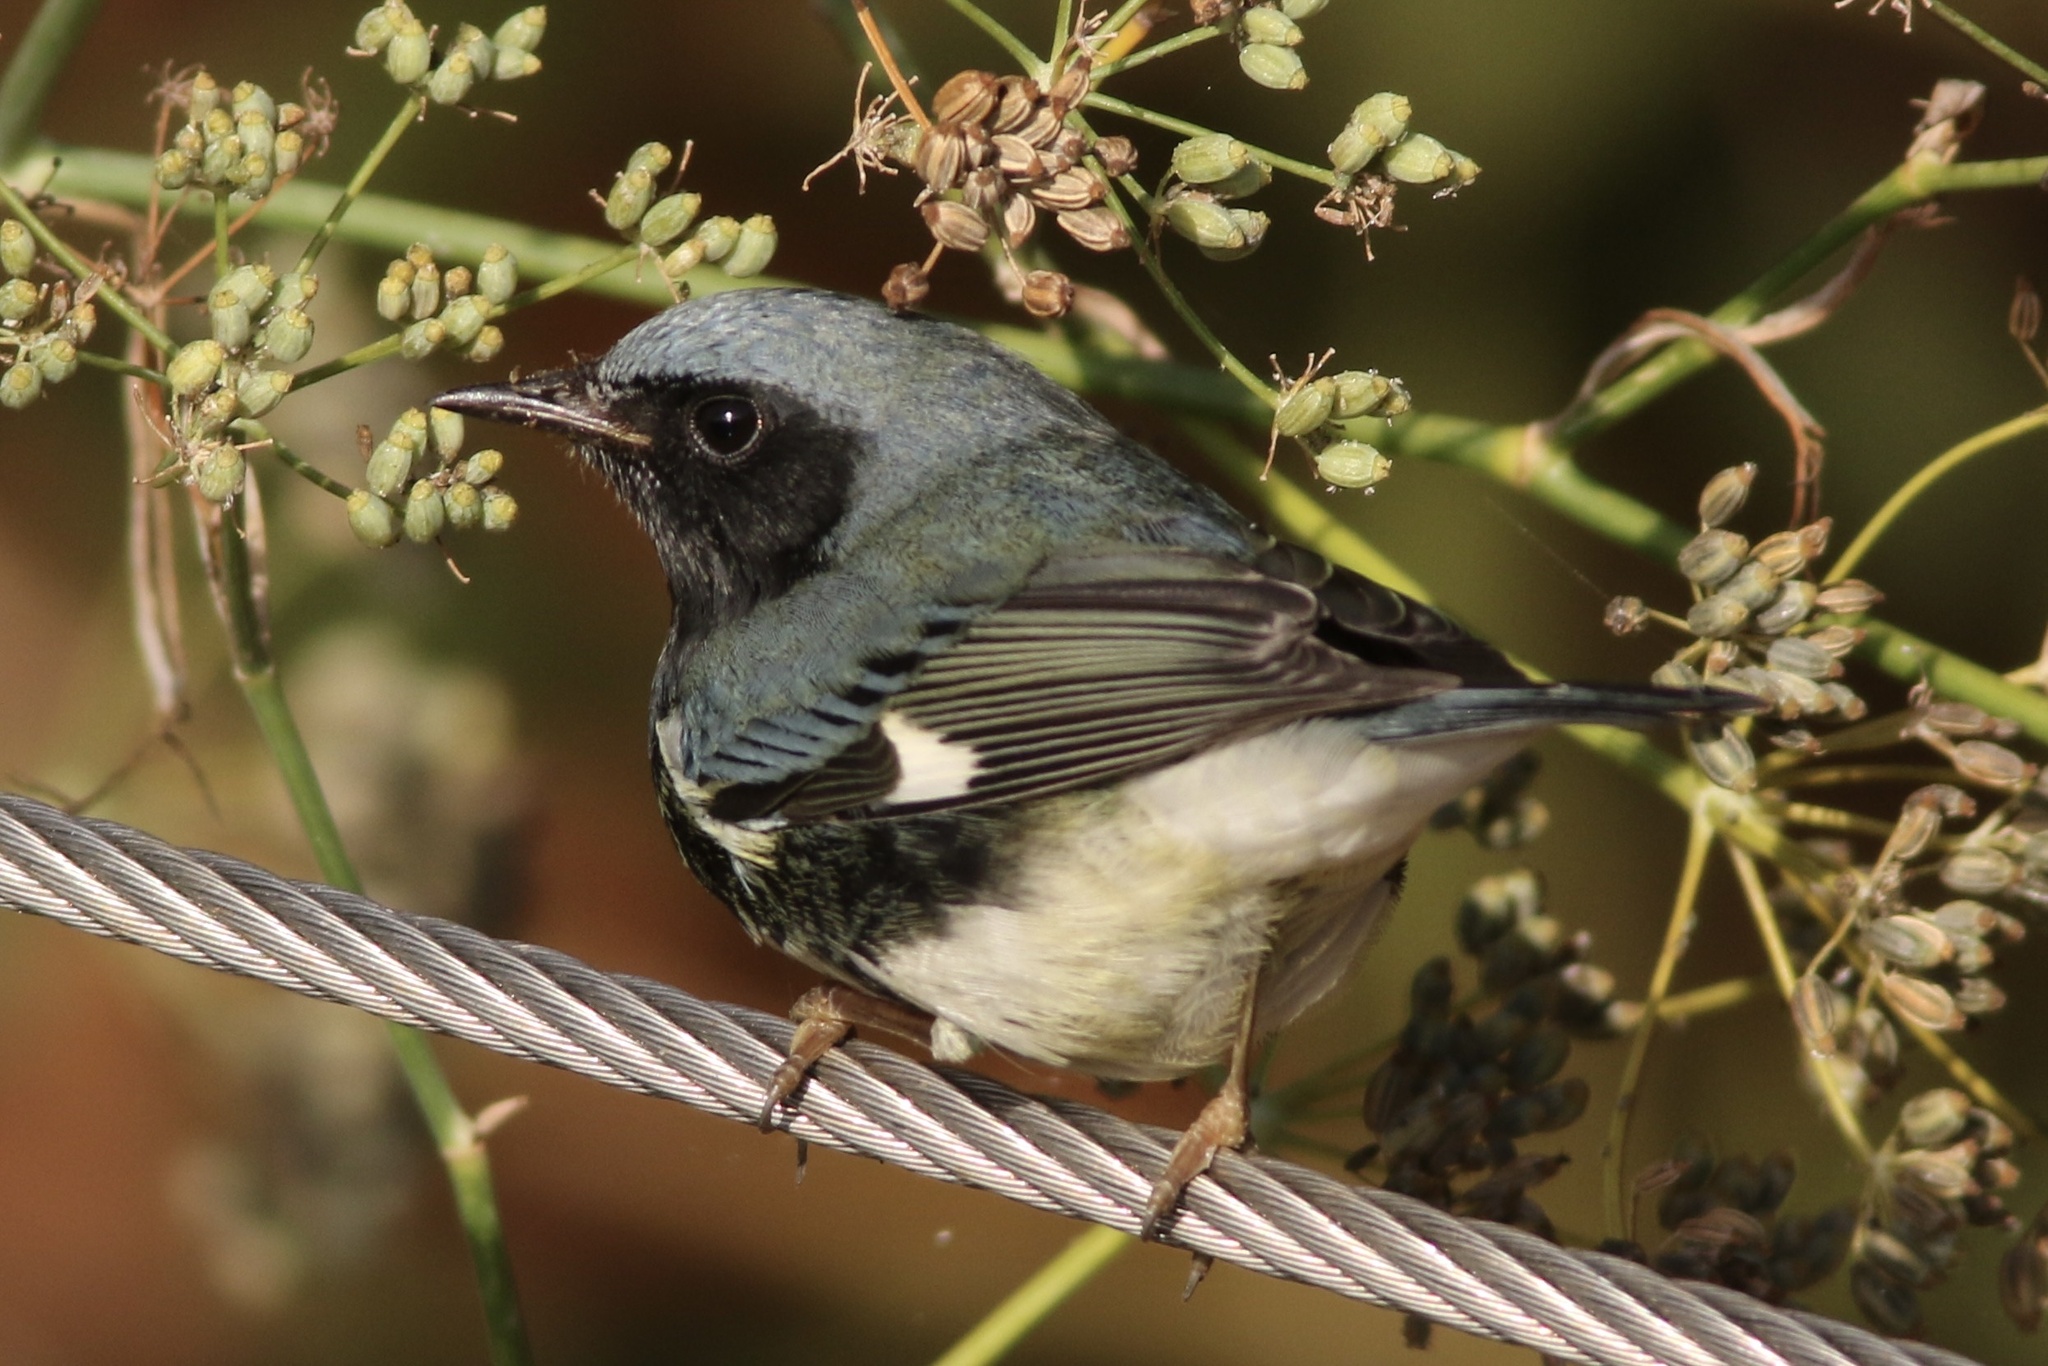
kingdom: Animalia
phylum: Chordata
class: Aves
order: Passeriformes
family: Parulidae
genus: Setophaga
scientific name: Setophaga caerulescens
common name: Black-throated blue warbler
